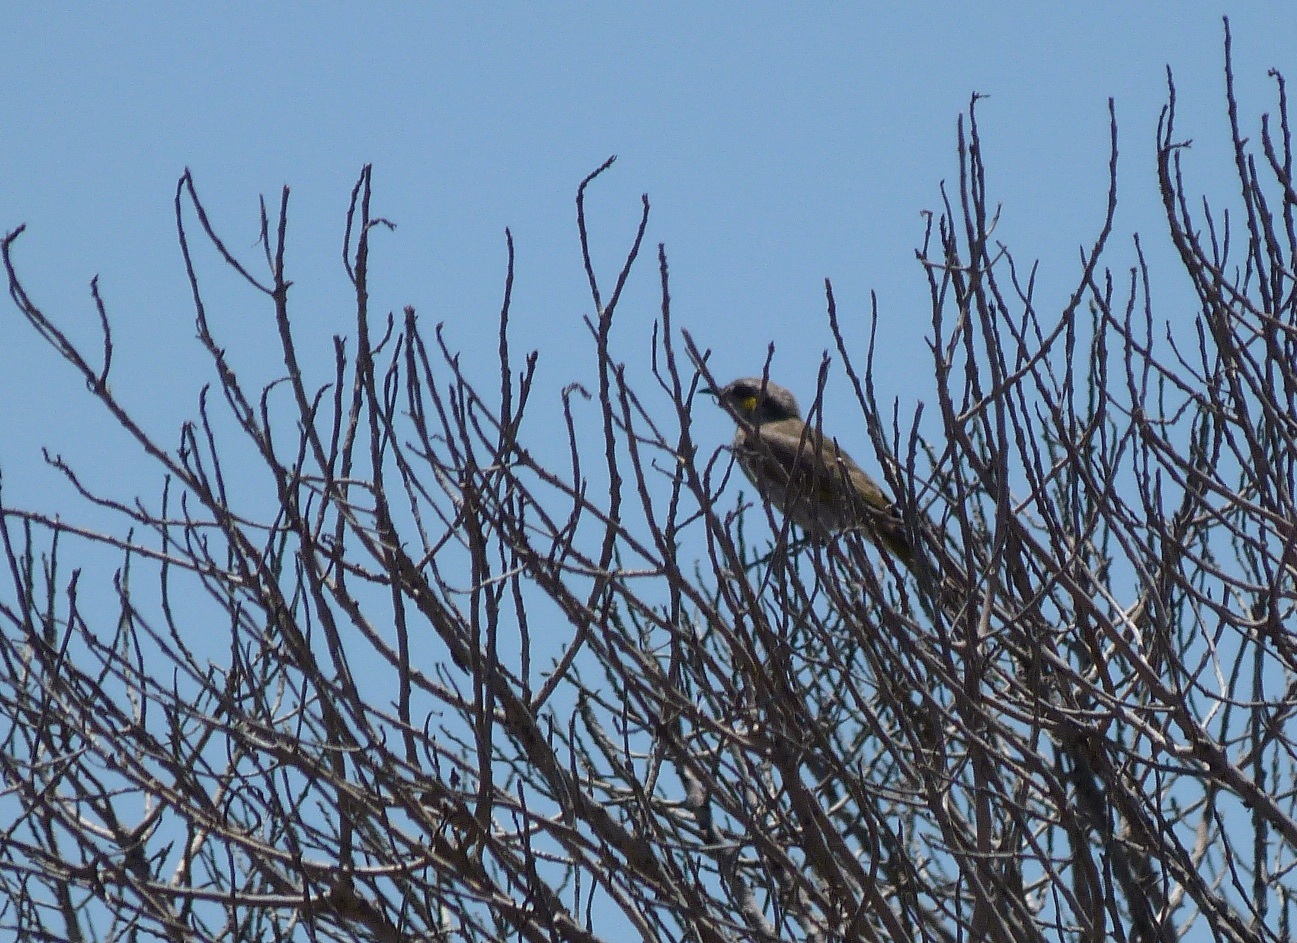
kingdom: Animalia
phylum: Chordata
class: Aves
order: Passeriformes
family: Meliphagidae
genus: Gavicalis
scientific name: Gavicalis virescens
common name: Singing honeyeater
